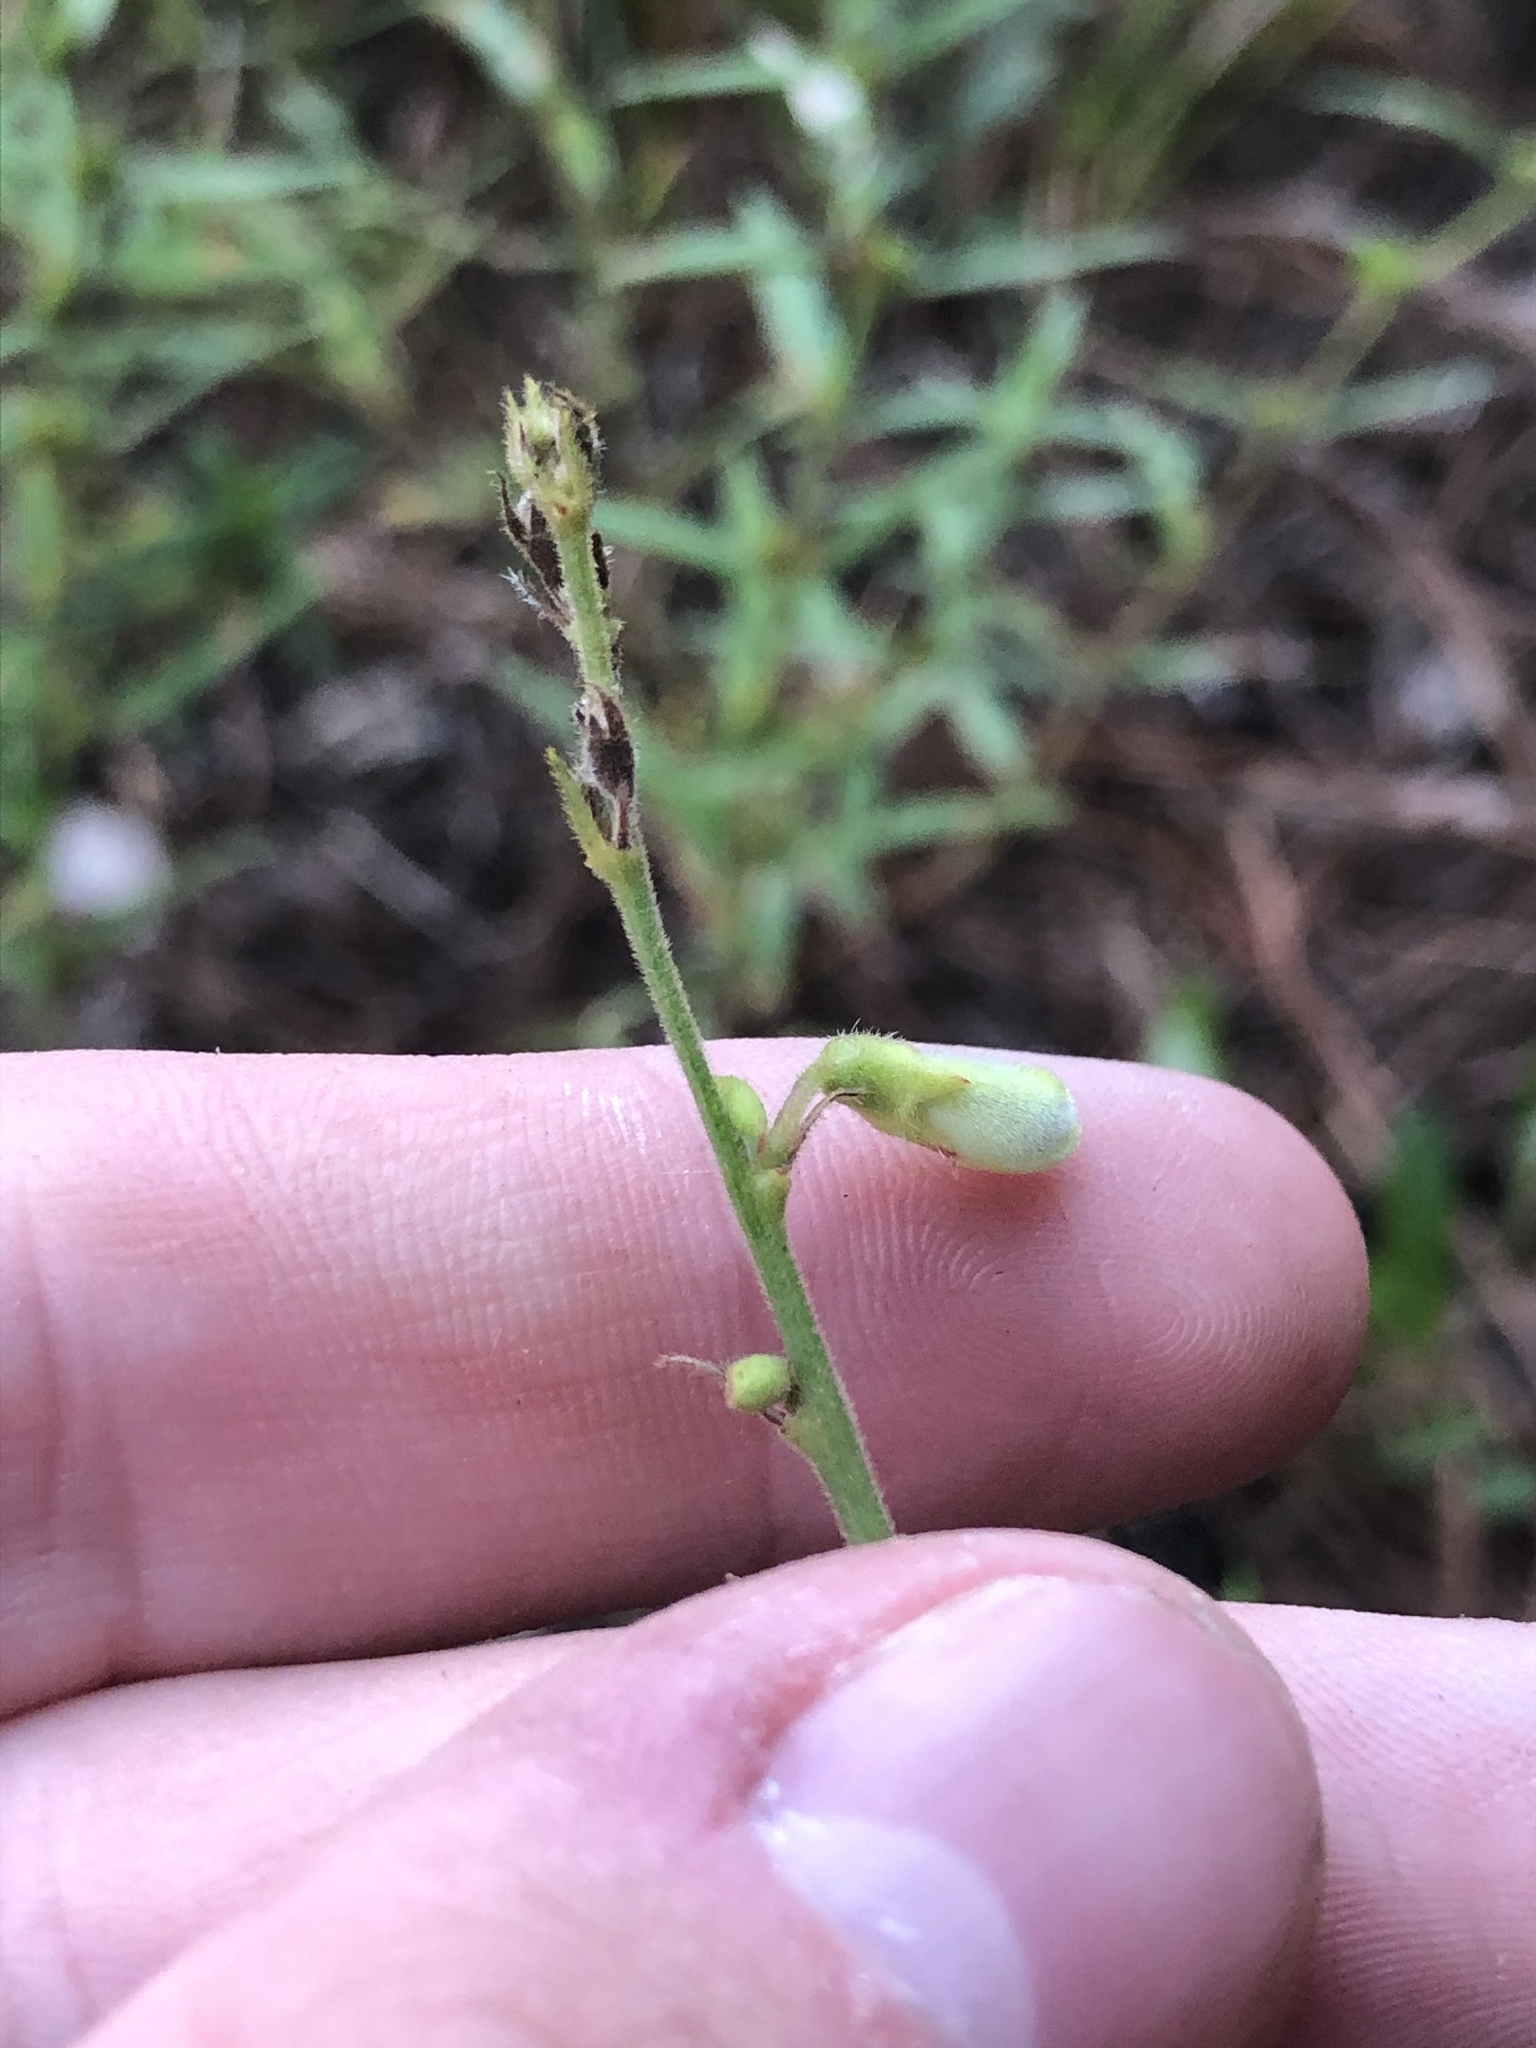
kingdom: Plantae
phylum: Tracheophyta
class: Magnoliopsida
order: Fabales
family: Fabaceae
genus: Tephrosia
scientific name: Tephrosia onobrychoides
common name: Multi-bloom hoary-pea
